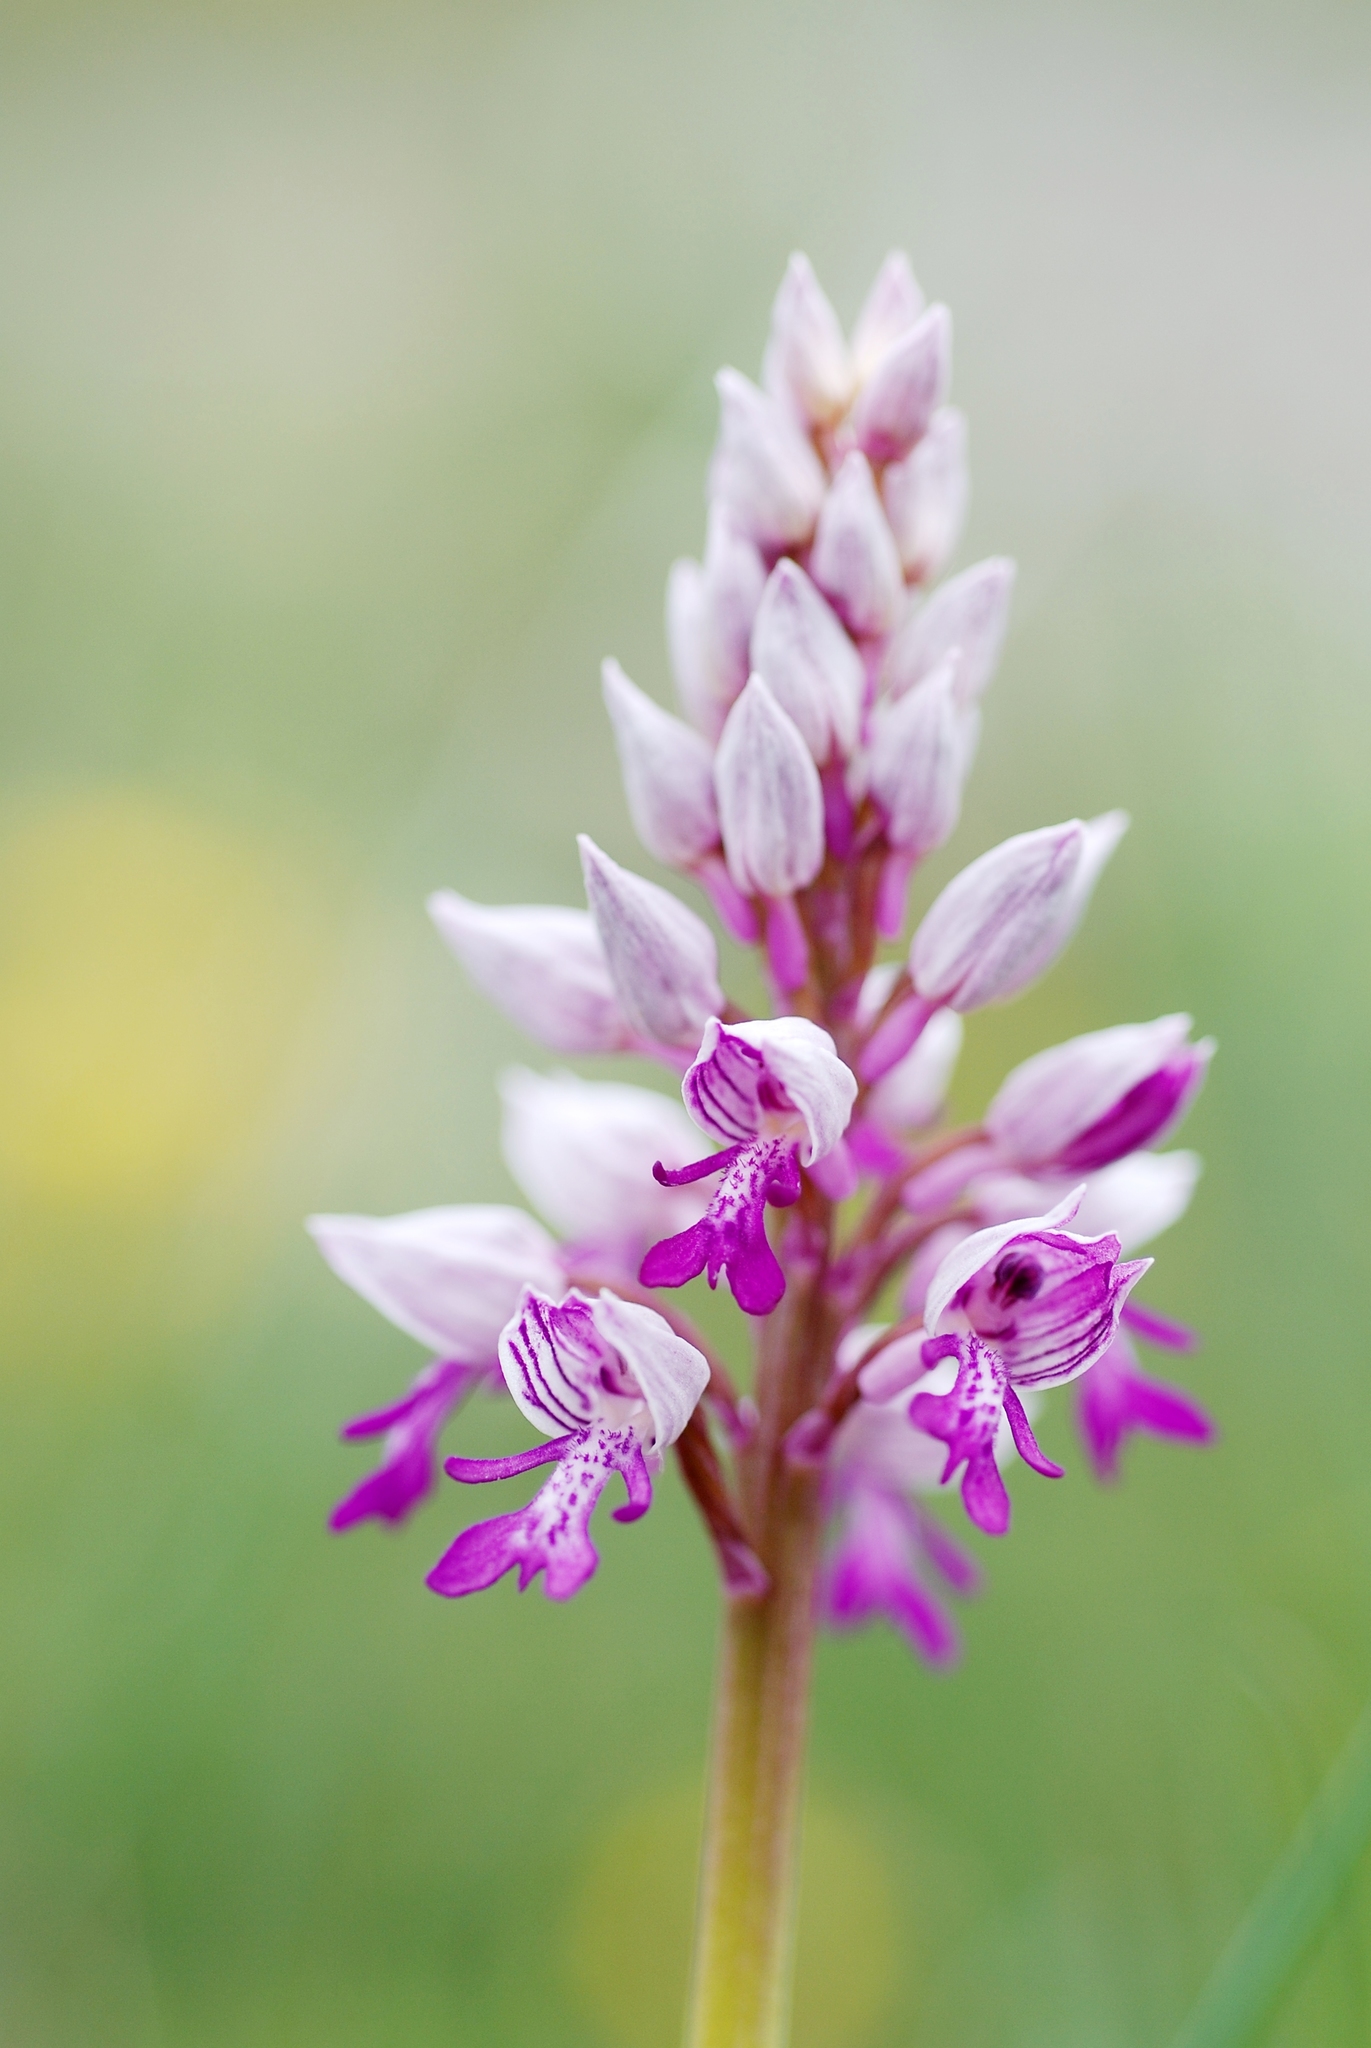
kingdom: Plantae
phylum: Tracheophyta
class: Liliopsida
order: Asparagales
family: Orchidaceae
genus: Orchis
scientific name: Orchis militaris
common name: Military orchid
